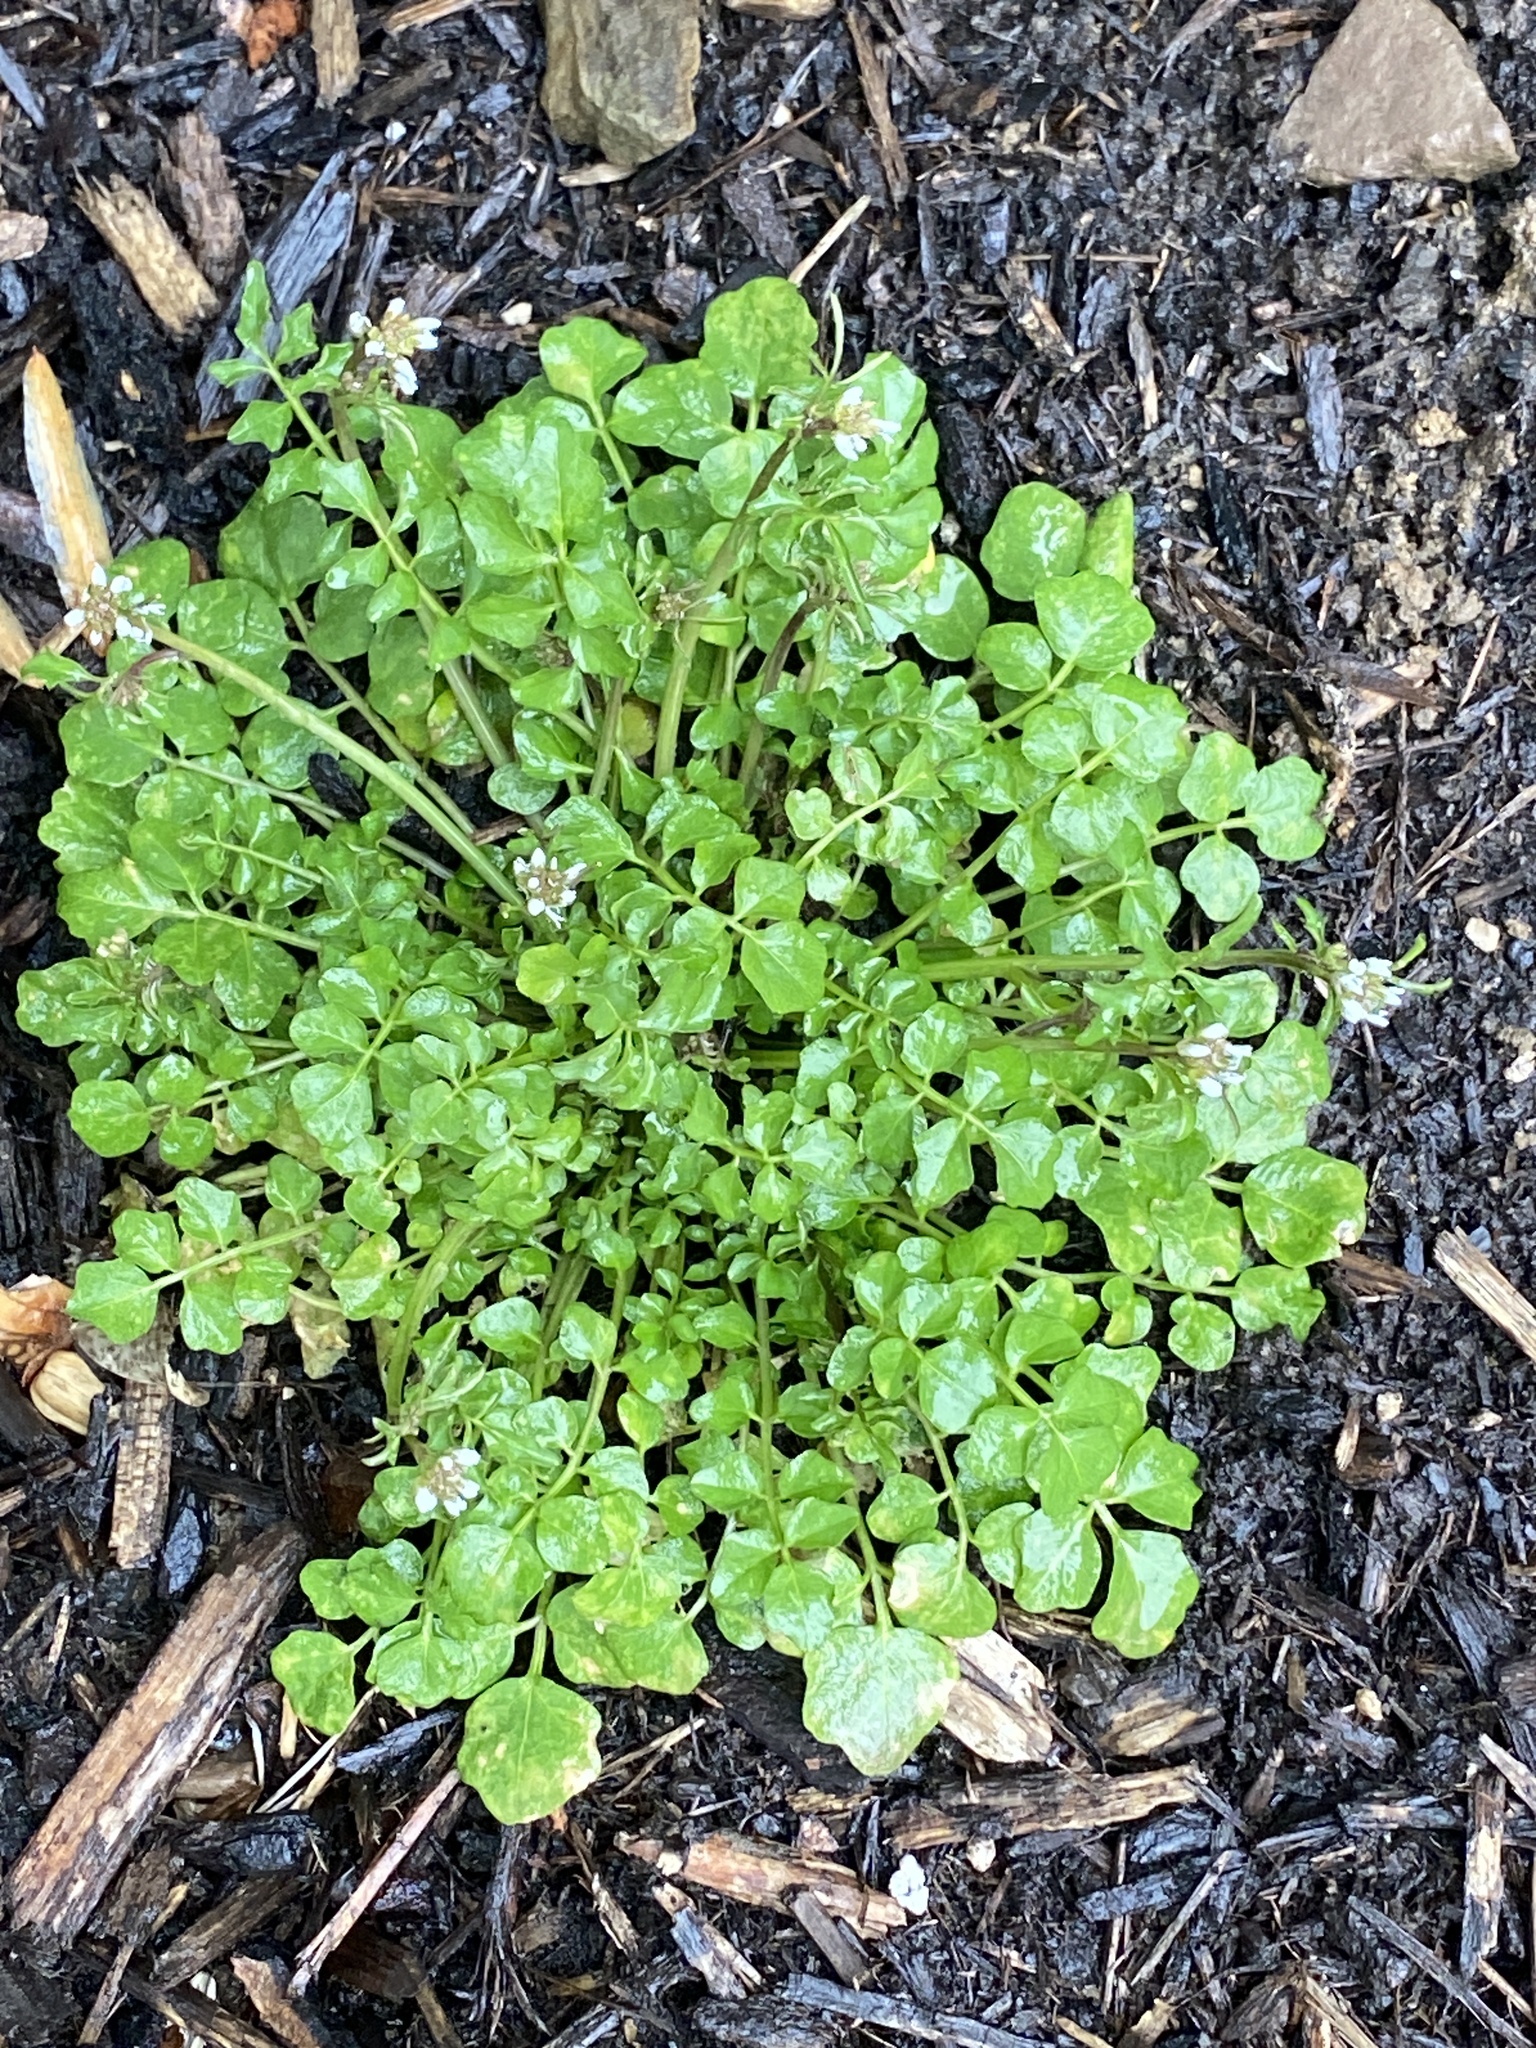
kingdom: Plantae
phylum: Tracheophyta
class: Magnoliopsida
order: Brassicales
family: Brassicaceae
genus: Cardamine
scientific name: Cardamine hirsuta
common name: Hairy bittercress
